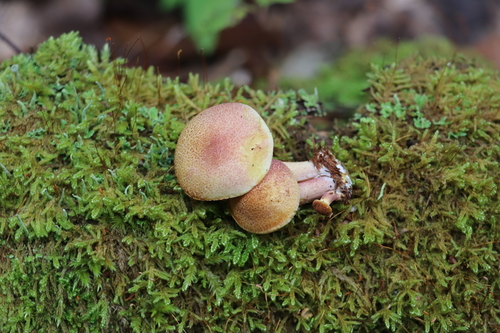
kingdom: Fungi
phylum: Basidiomycota
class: Agaricomycetes
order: Agaricales
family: Tricholomataceae
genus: Tricholomopsis
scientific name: Tricholomopsis rutilans
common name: Plums and custard
